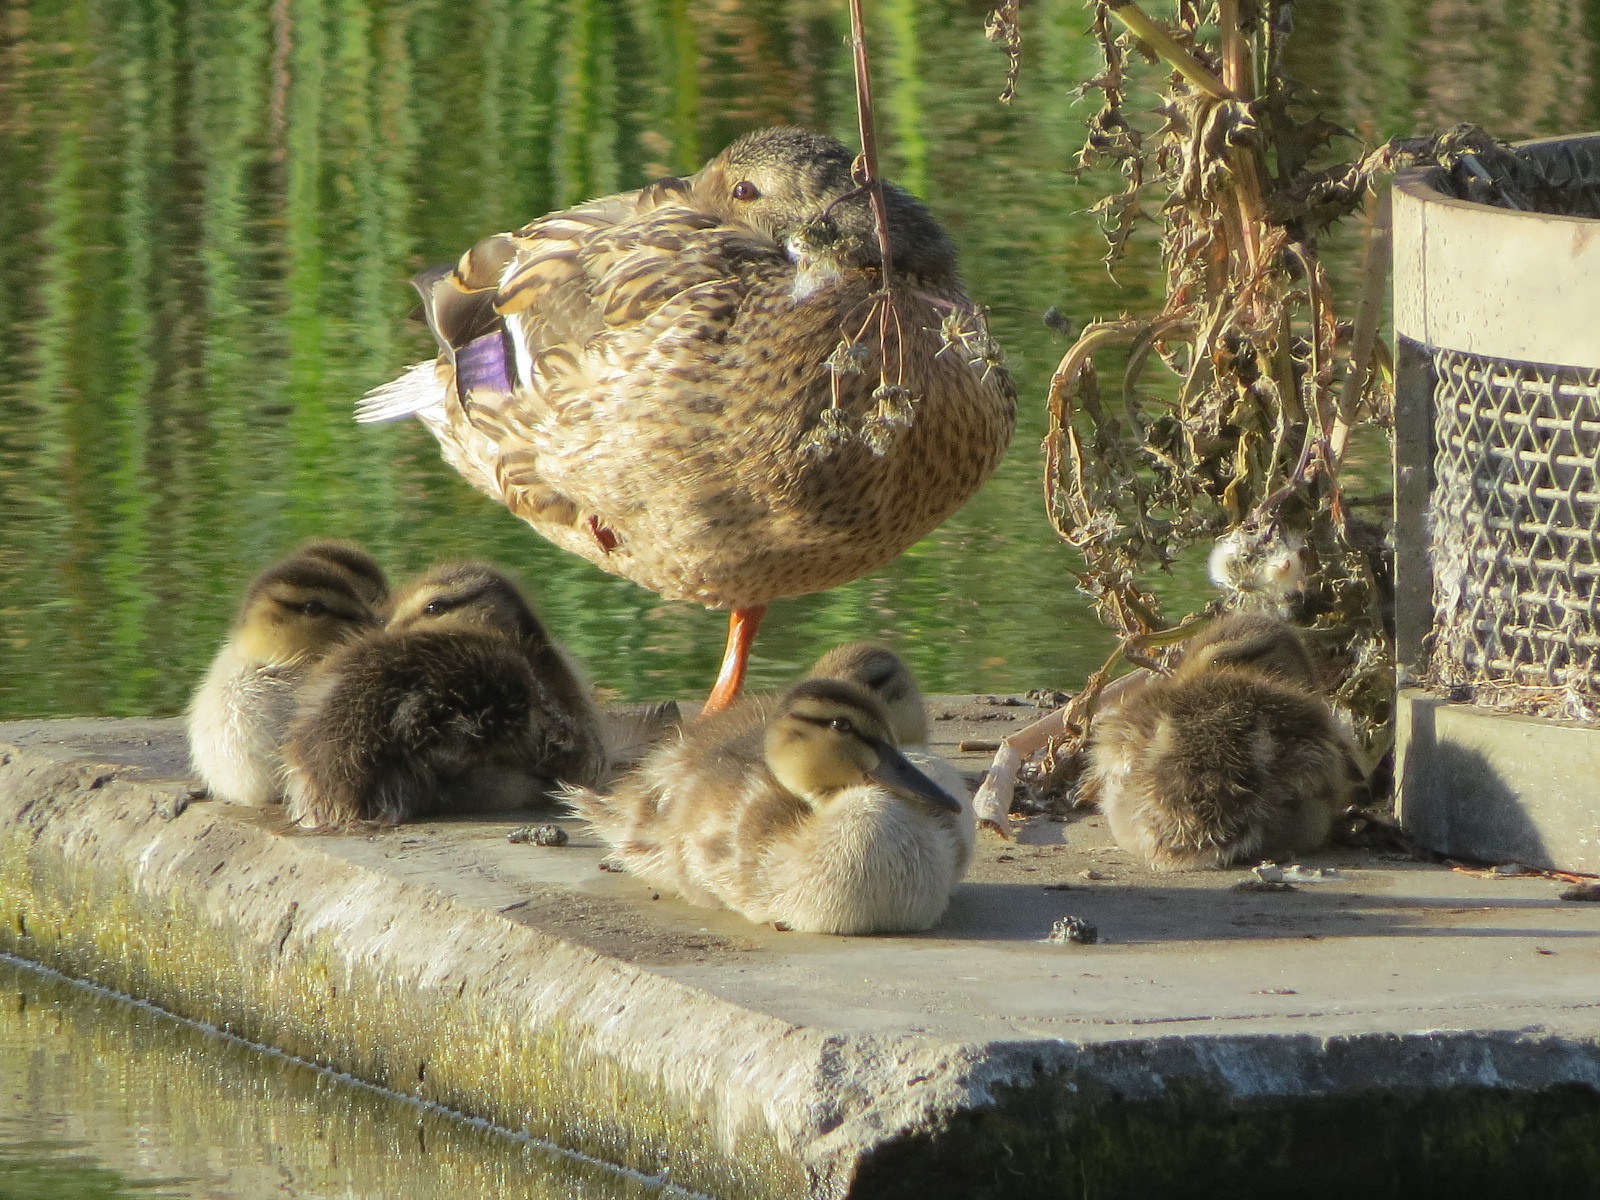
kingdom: Animalia
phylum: Chordata
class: Aves
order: Anseriformes
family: Anatidae
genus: Anas
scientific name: Anas platyrhynchos
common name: Mallard
